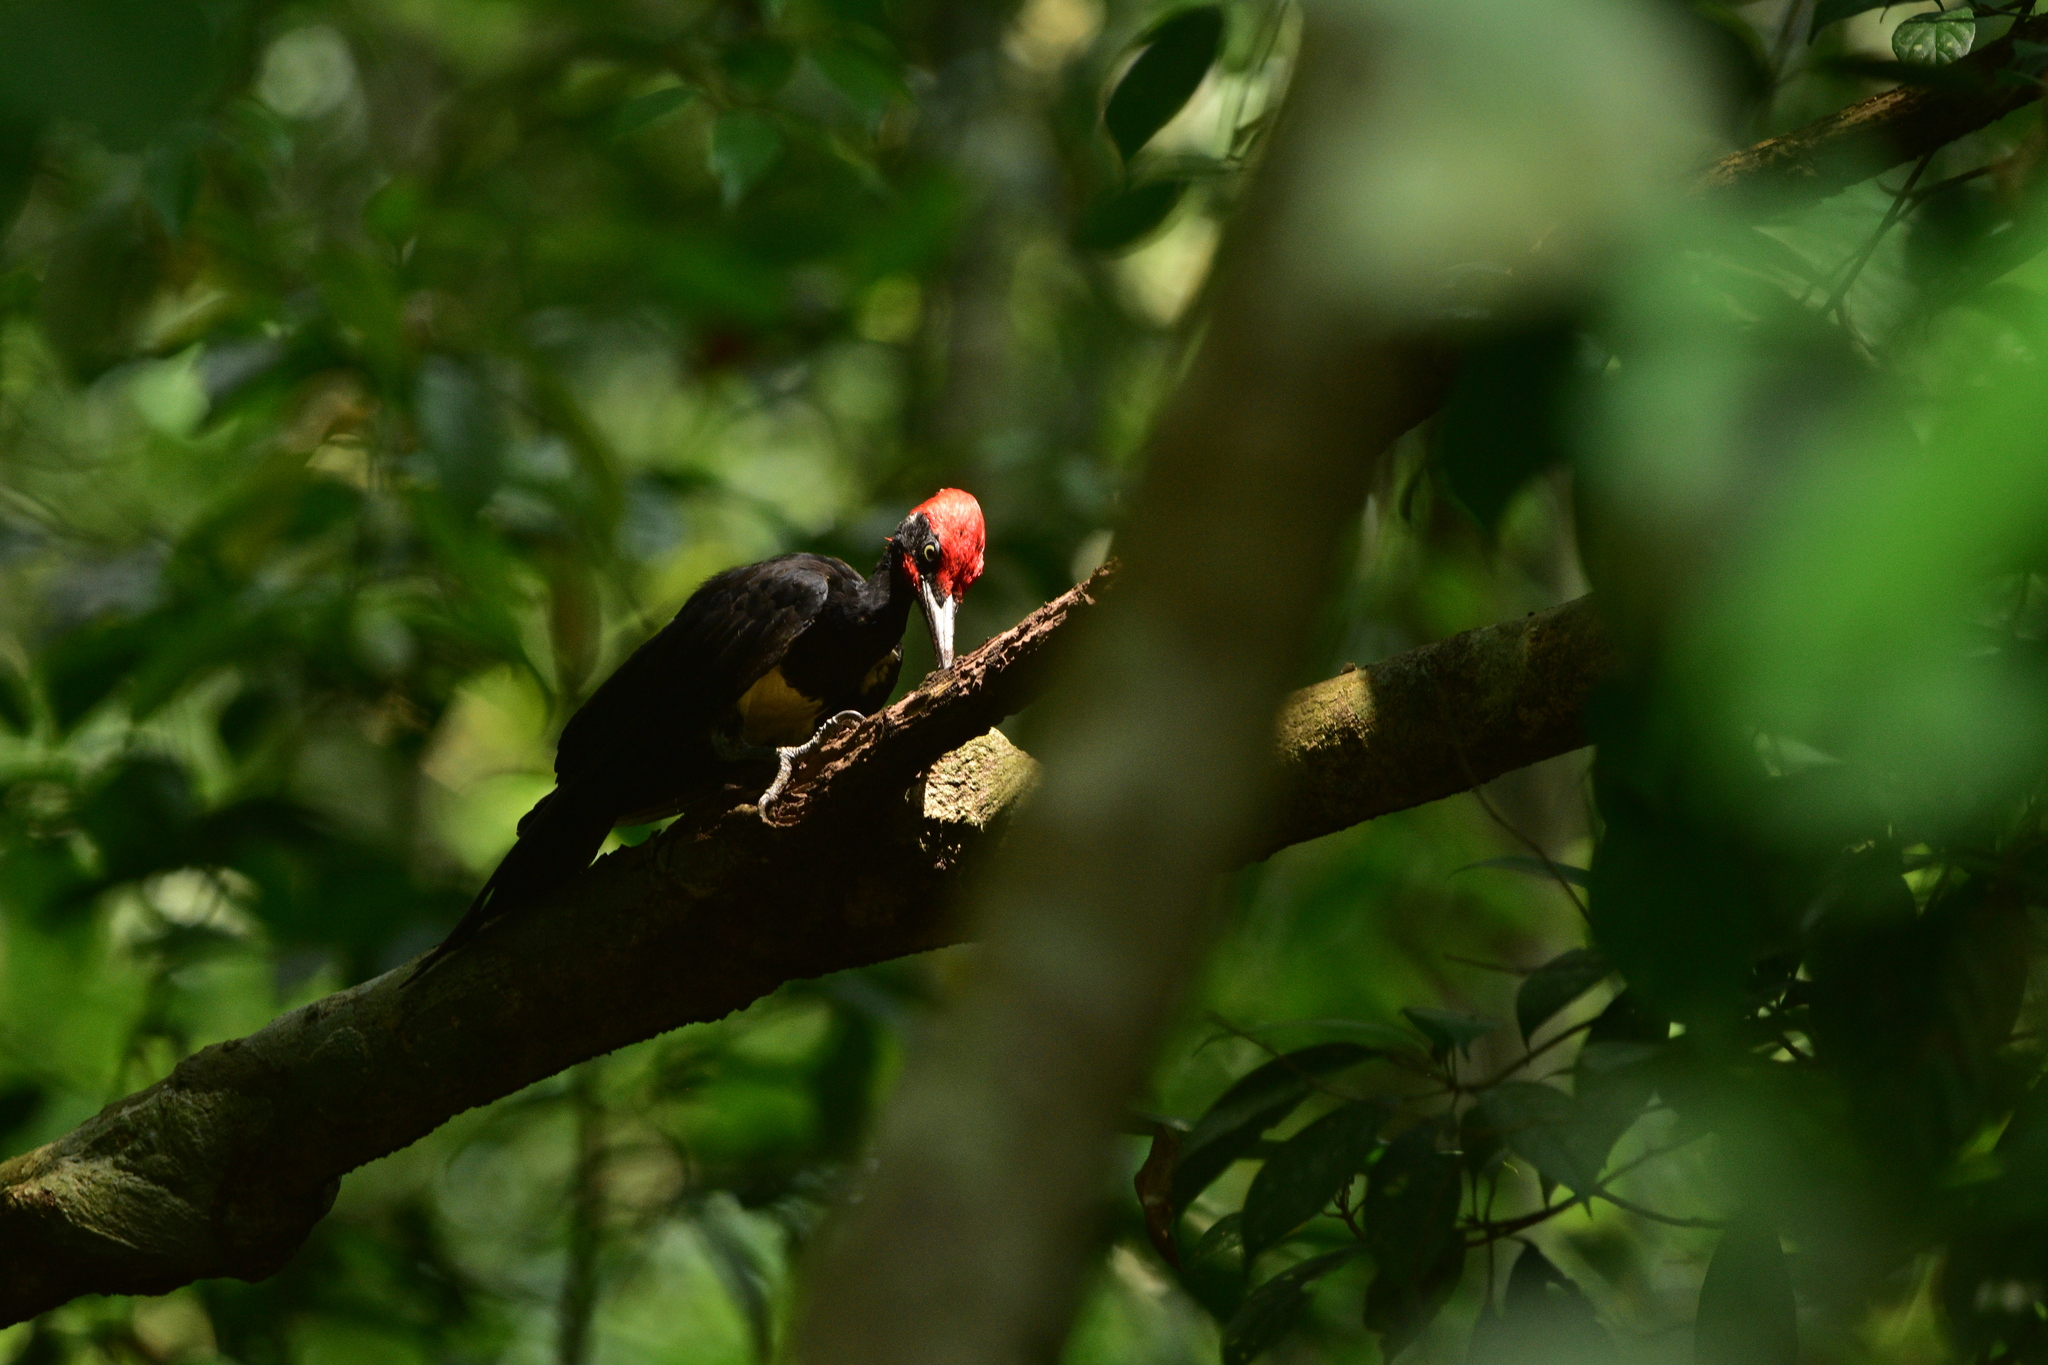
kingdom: Animalia
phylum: Chordata
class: Aves
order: Piciformes
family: Picidae
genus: Dryocopus
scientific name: Dryocopus javensis
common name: White-bellied woodpecker
